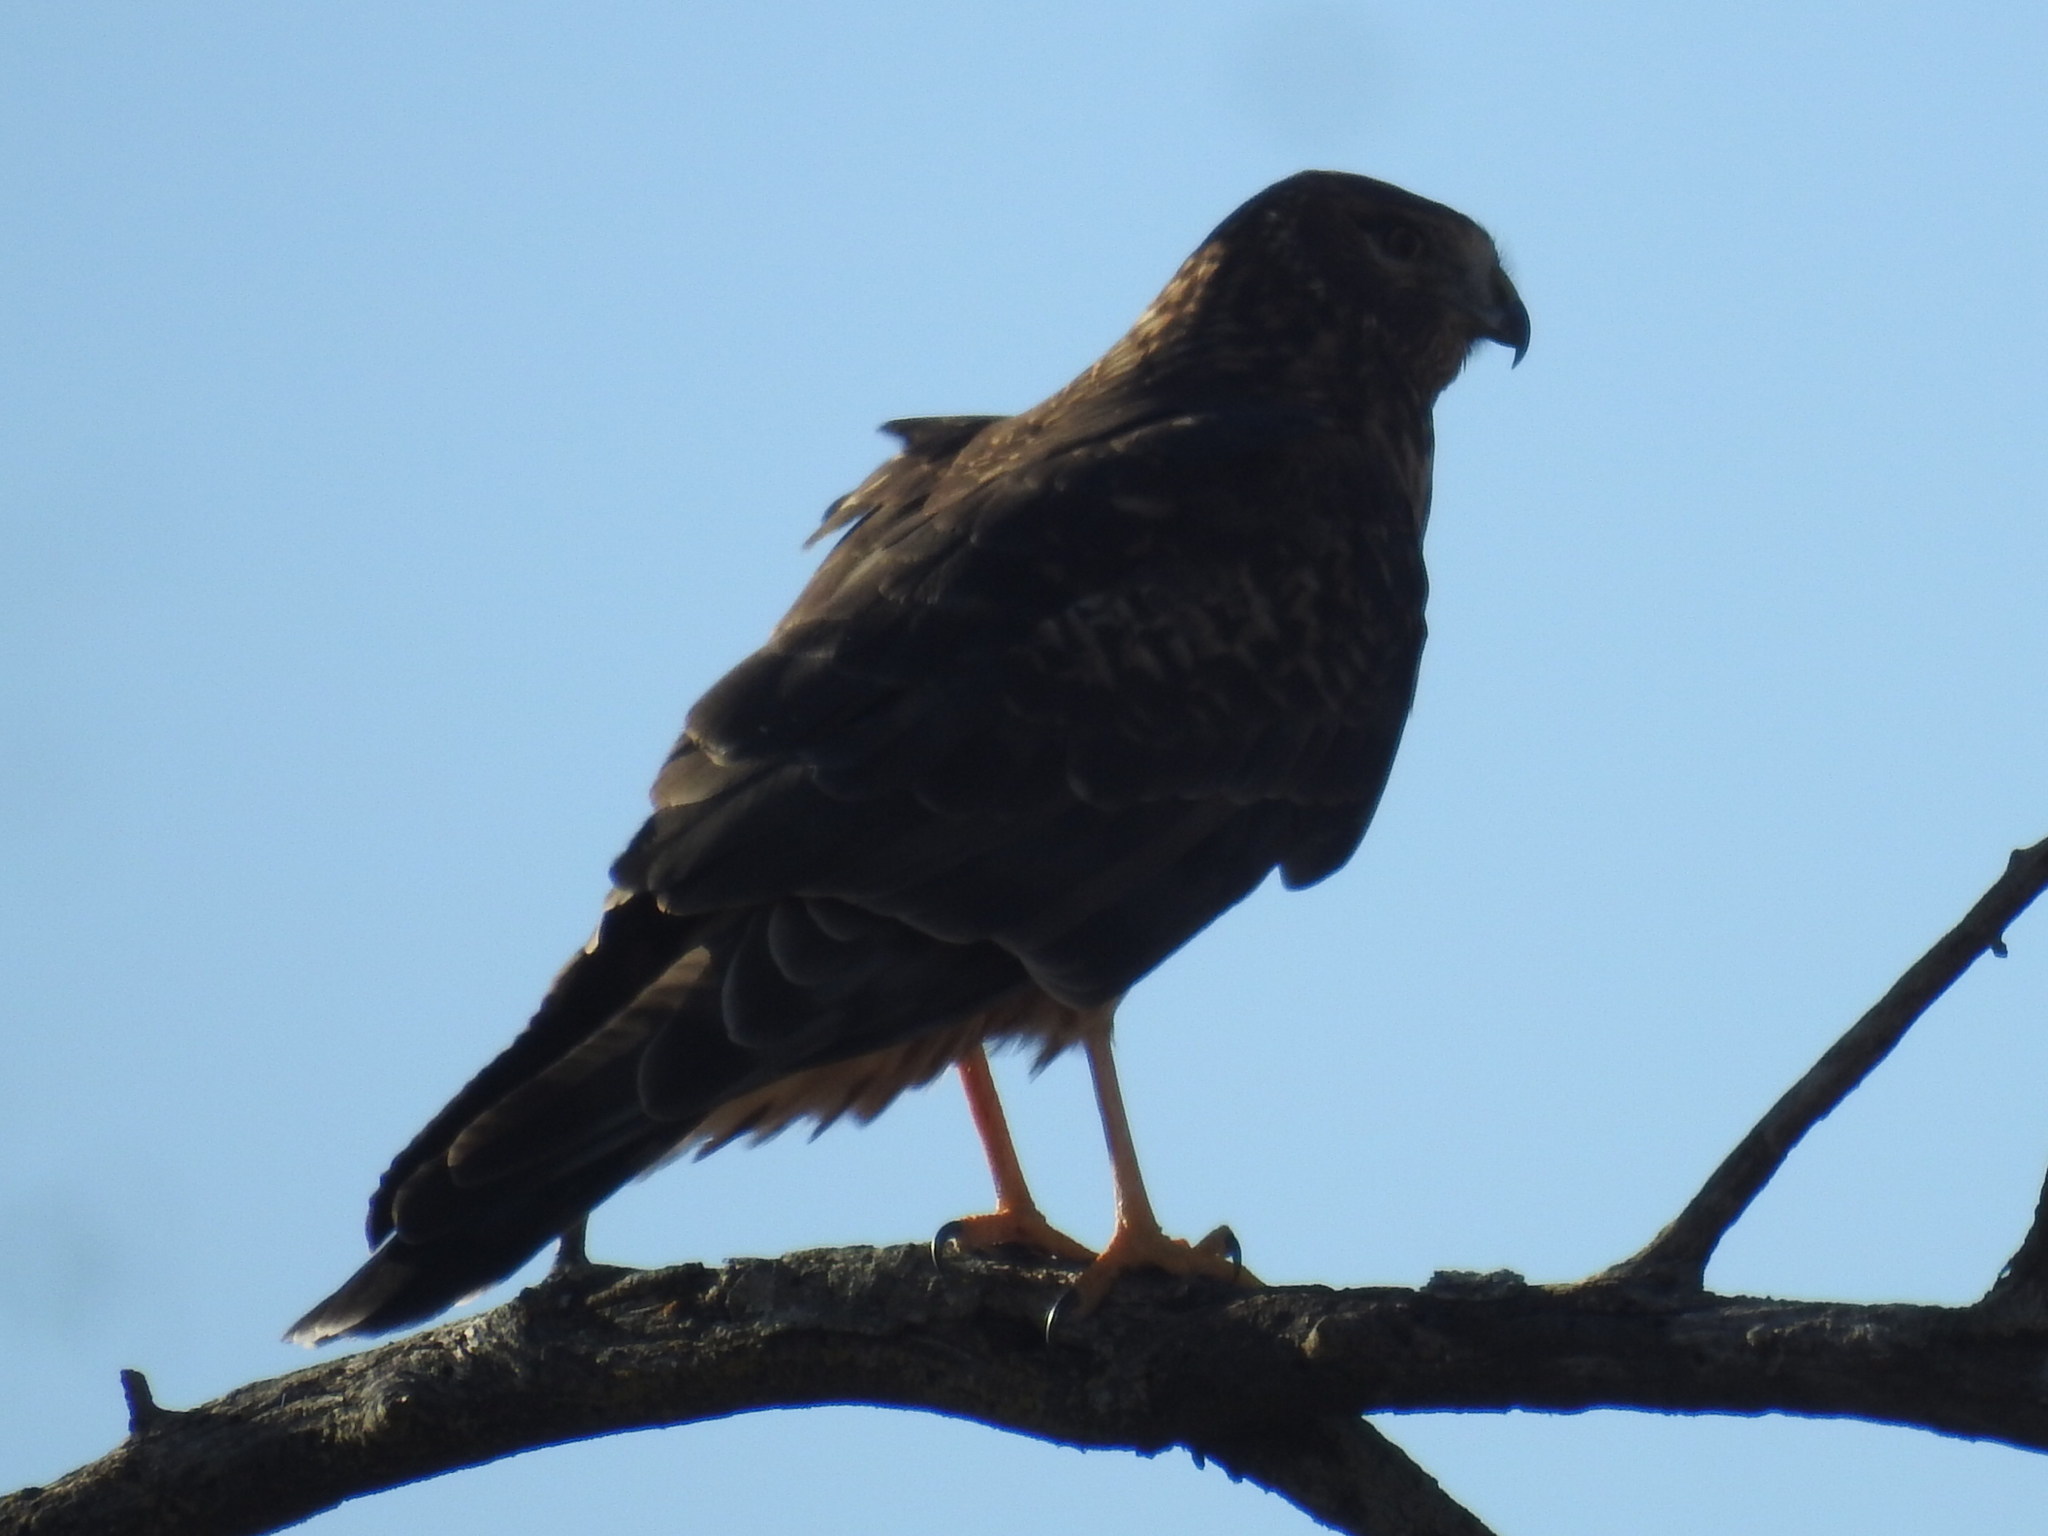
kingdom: Animalia
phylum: Chordata
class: Aves
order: Accipitriformes
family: Accipitridae
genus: Circus
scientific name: Circus cyaneus
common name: Hen harrier
